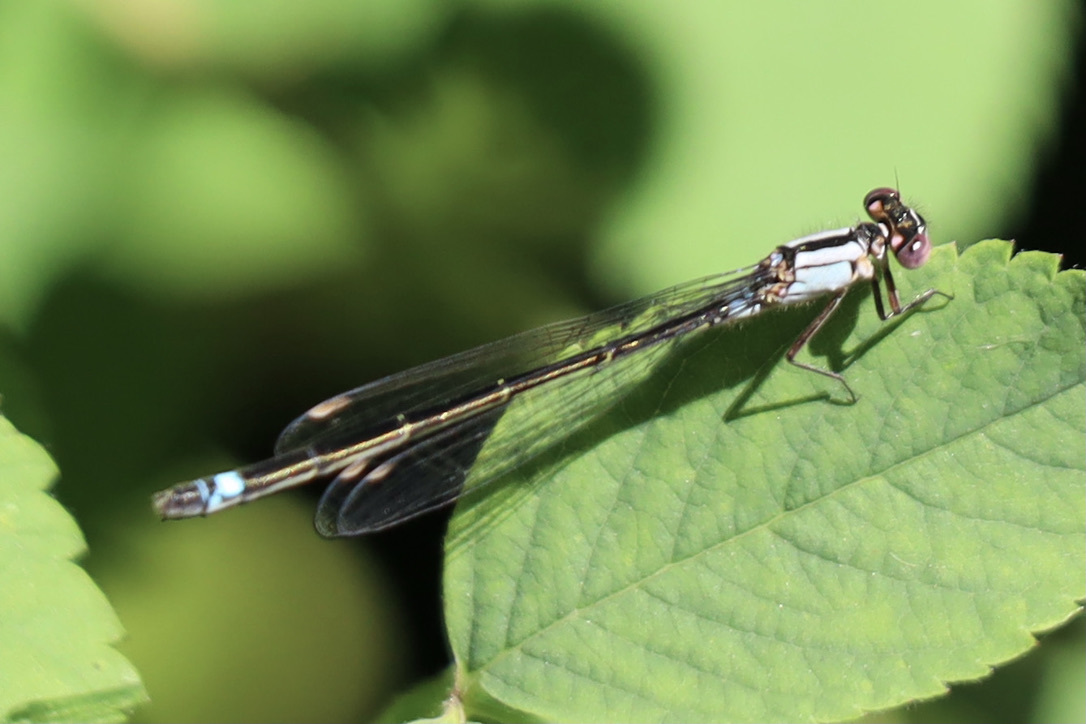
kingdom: Animalia
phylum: Arthropoda
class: Insecta
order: Odonata
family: Coenagrionidae
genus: Ischnura
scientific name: Ischnura cervula
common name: Pacific forktail
